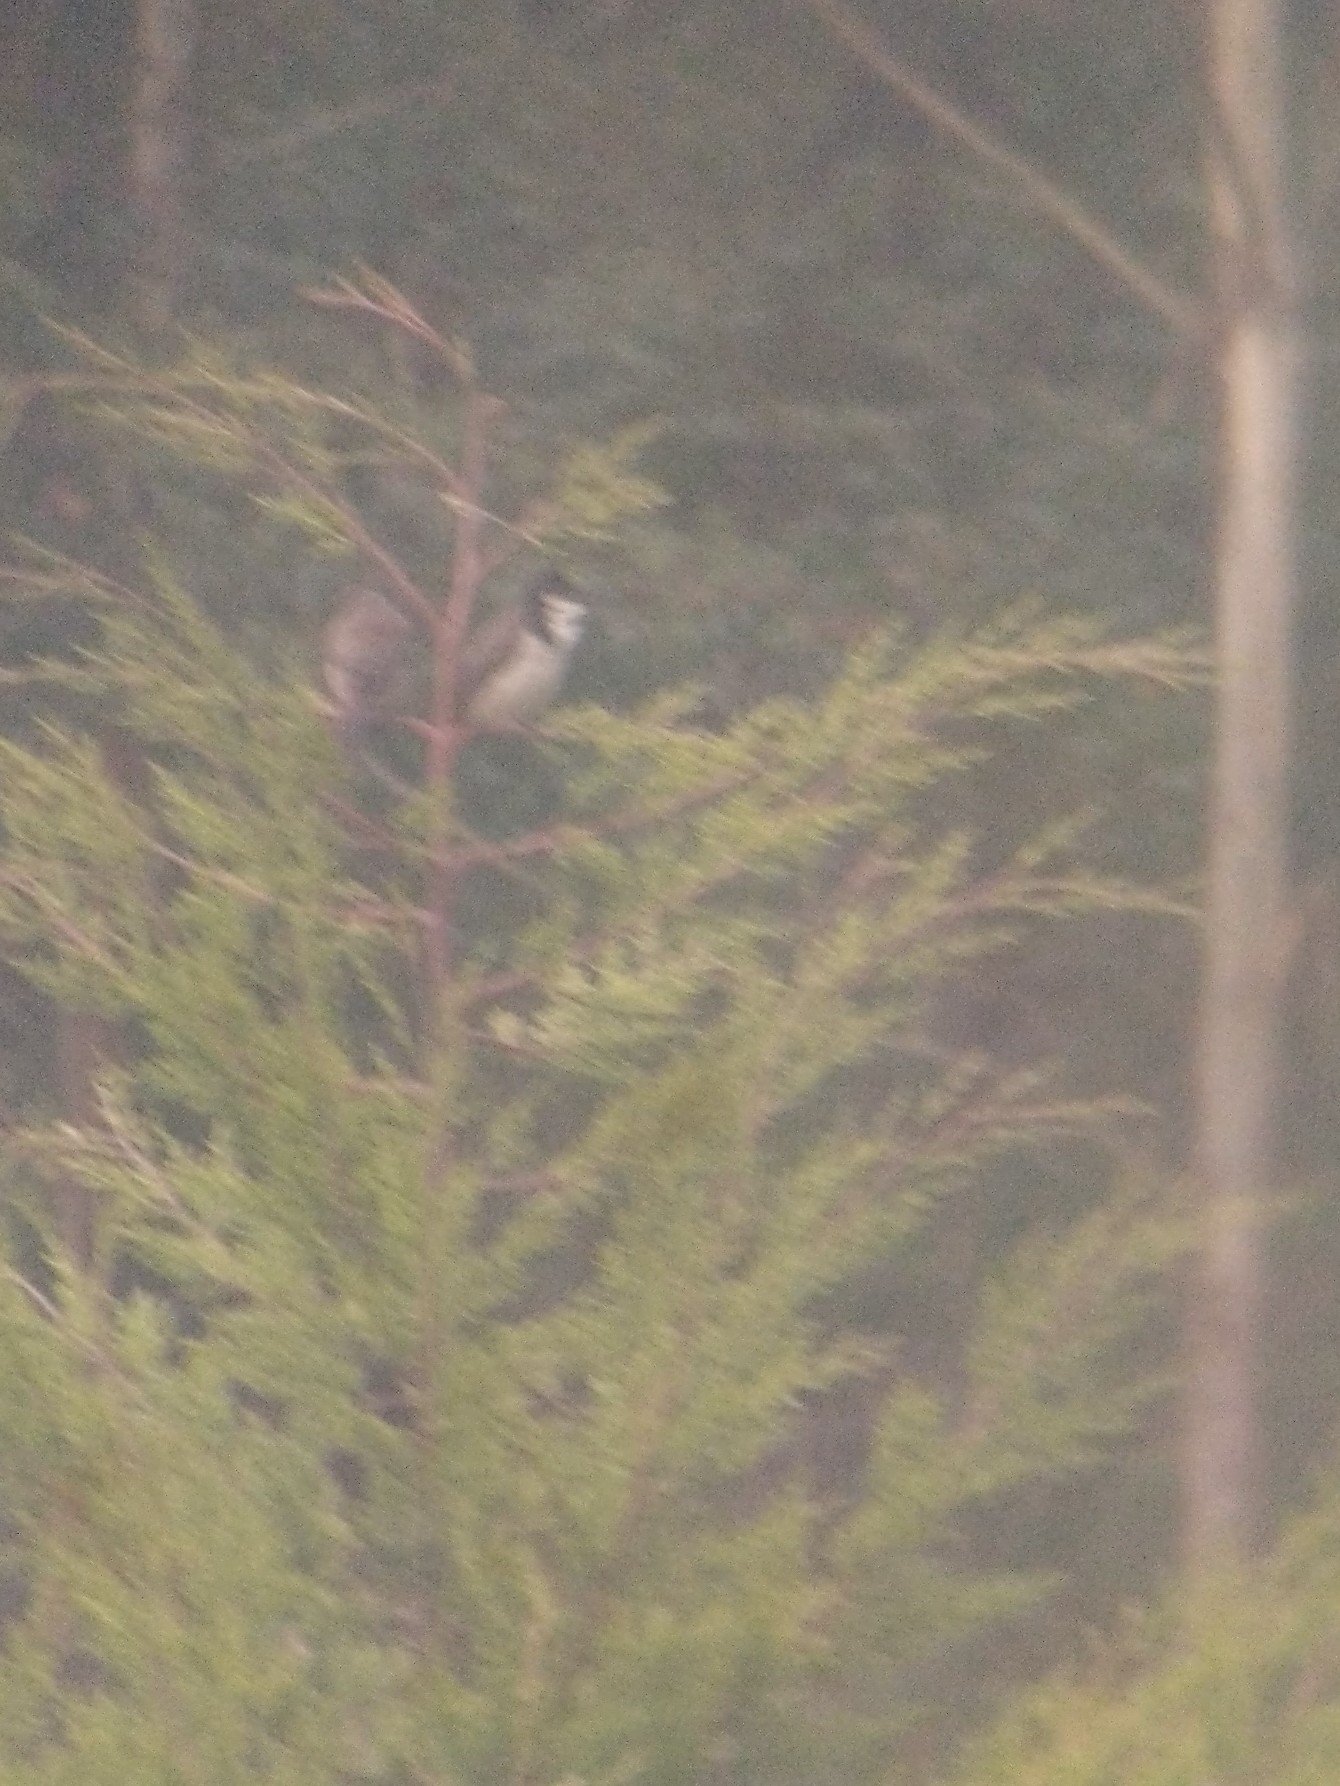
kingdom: Animalia
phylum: Chordata
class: Aves
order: Passeriformes
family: Pycnonotidae
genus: Pycnonotus
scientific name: Pycnonotus jocosus
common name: Red-whiskered bulbul
